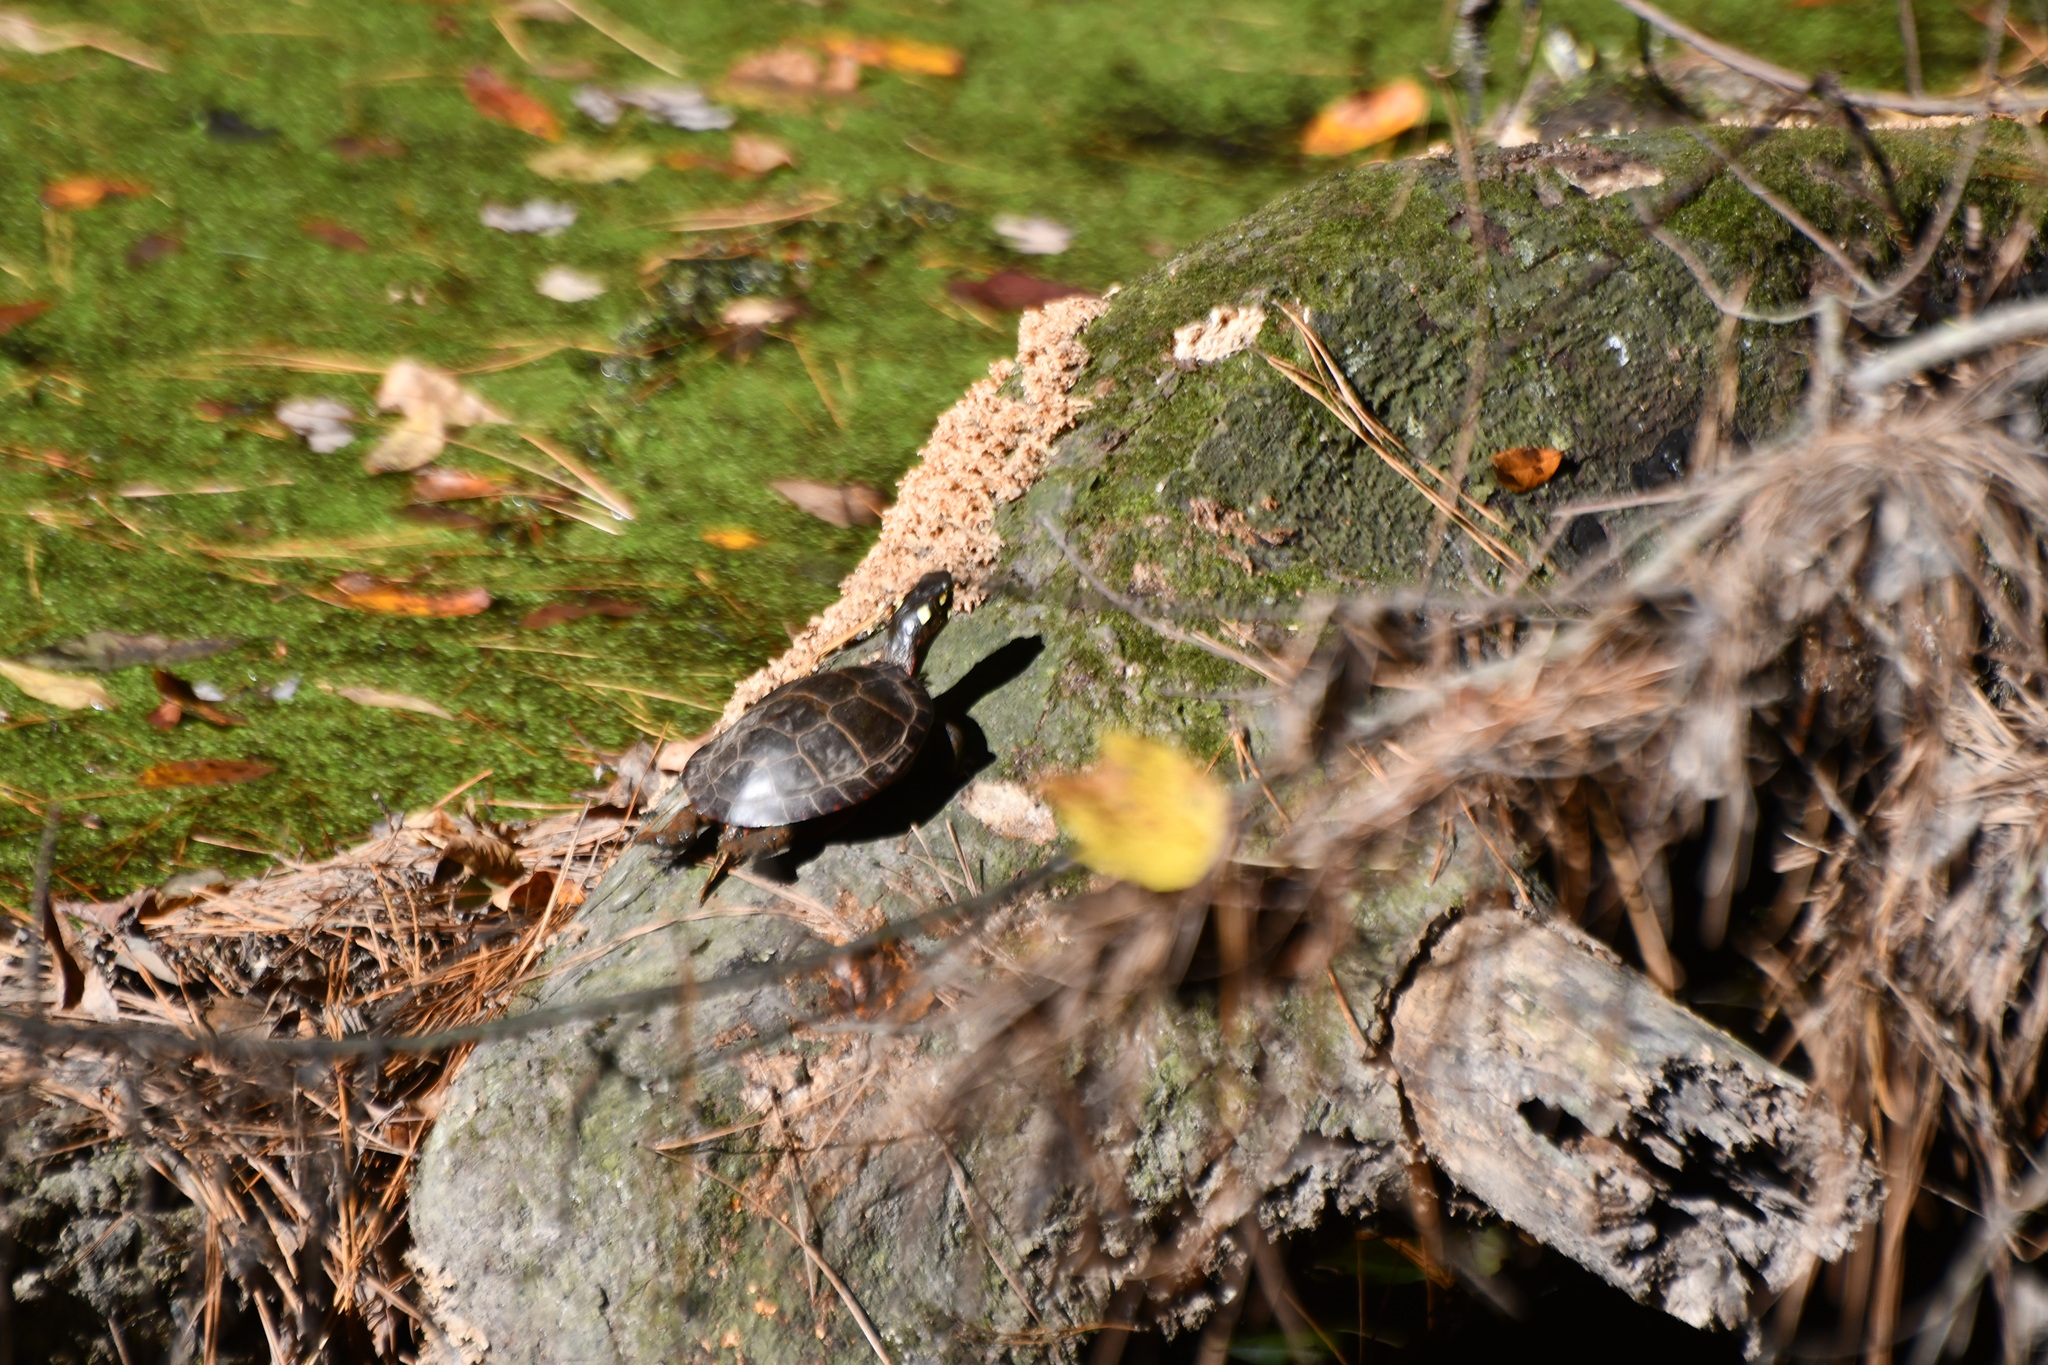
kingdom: Animalia
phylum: Chordata
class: Testudines
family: Emydidae
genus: Chrysemys
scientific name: Chrysemys picta
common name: Painted turtle
